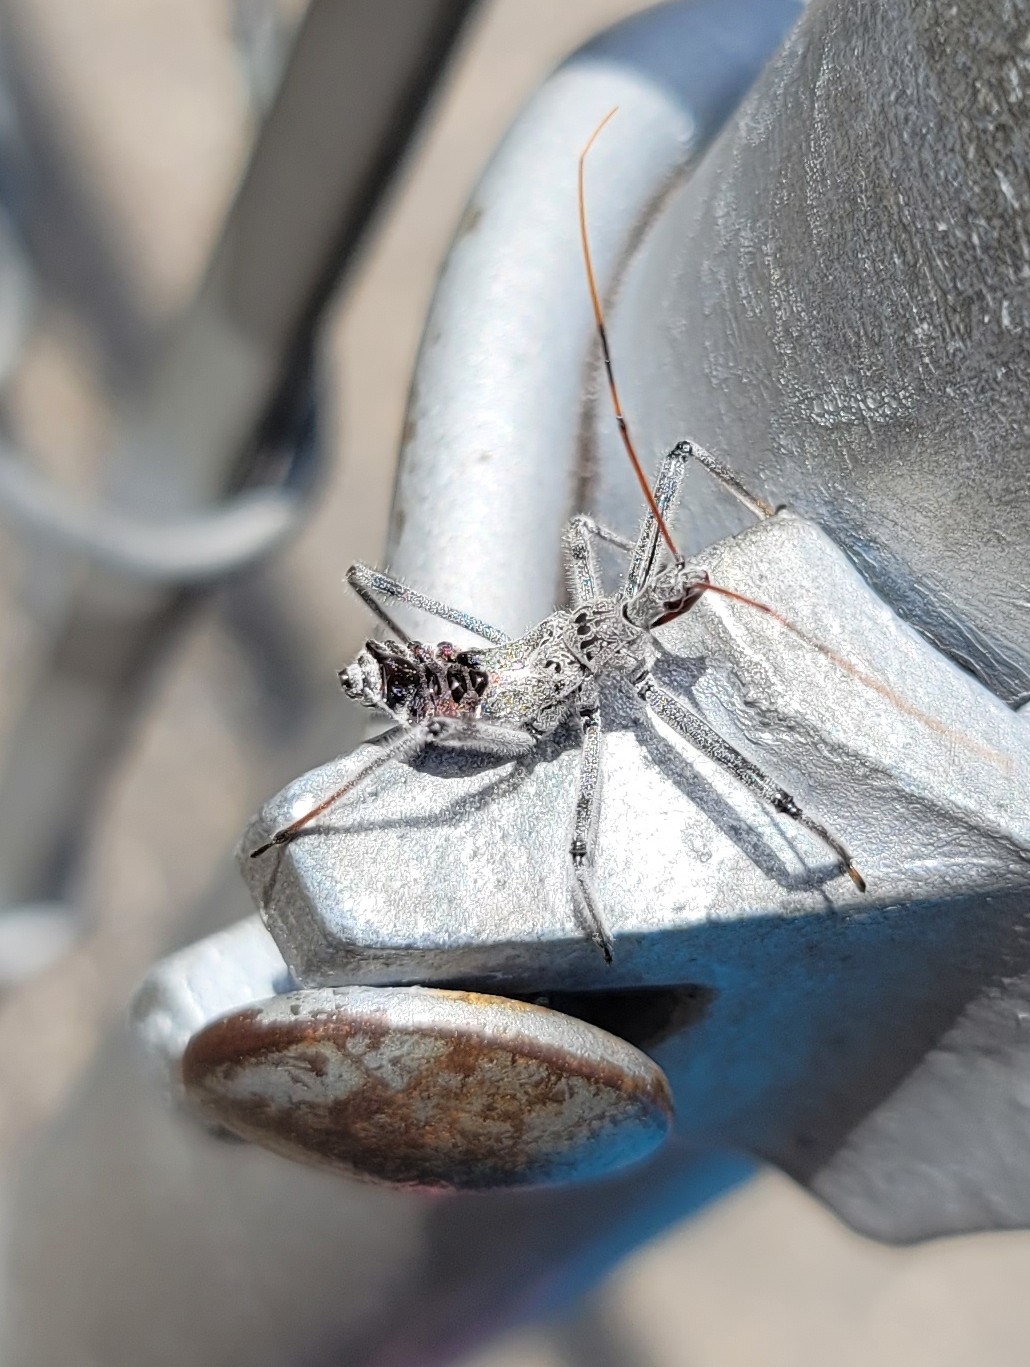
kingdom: Animalia
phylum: Arthropoda
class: Insecta
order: Hemiptera
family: Reduviidae
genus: Arilus
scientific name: Arilus cristatus
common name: North american wheel bug
